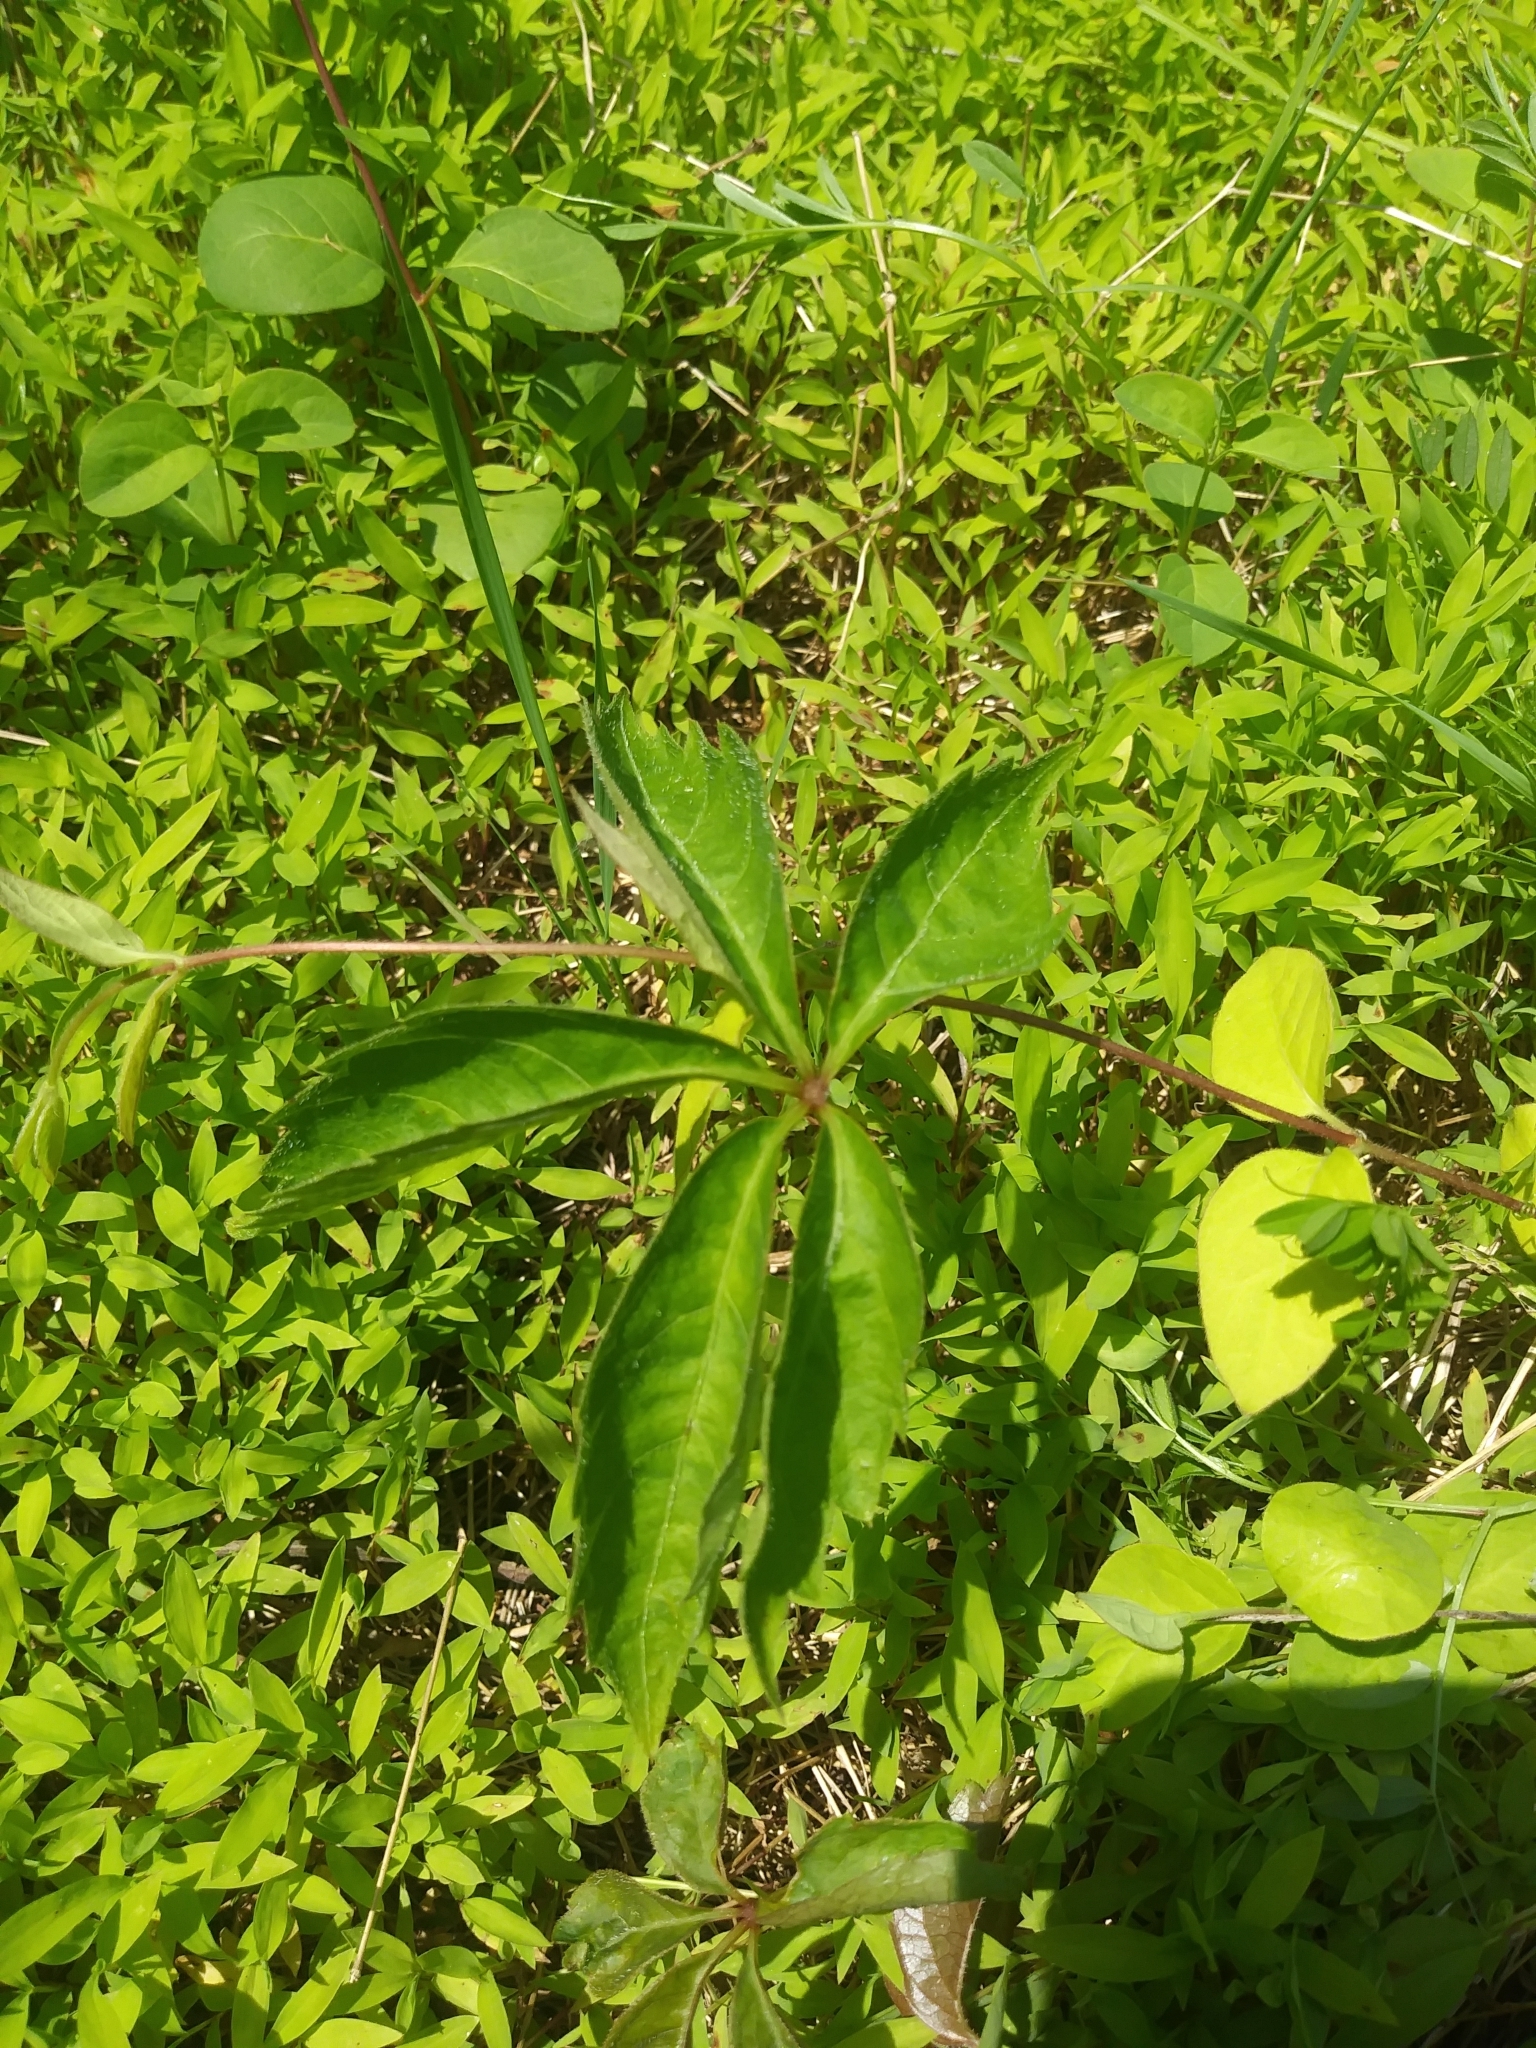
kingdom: Plantae
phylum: Tracheophyta
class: Magnoliopsida
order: Vitales
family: Vitaceae
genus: Parthenocissus
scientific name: Parthenocissus quinquefolia
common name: Virginia-creeper
